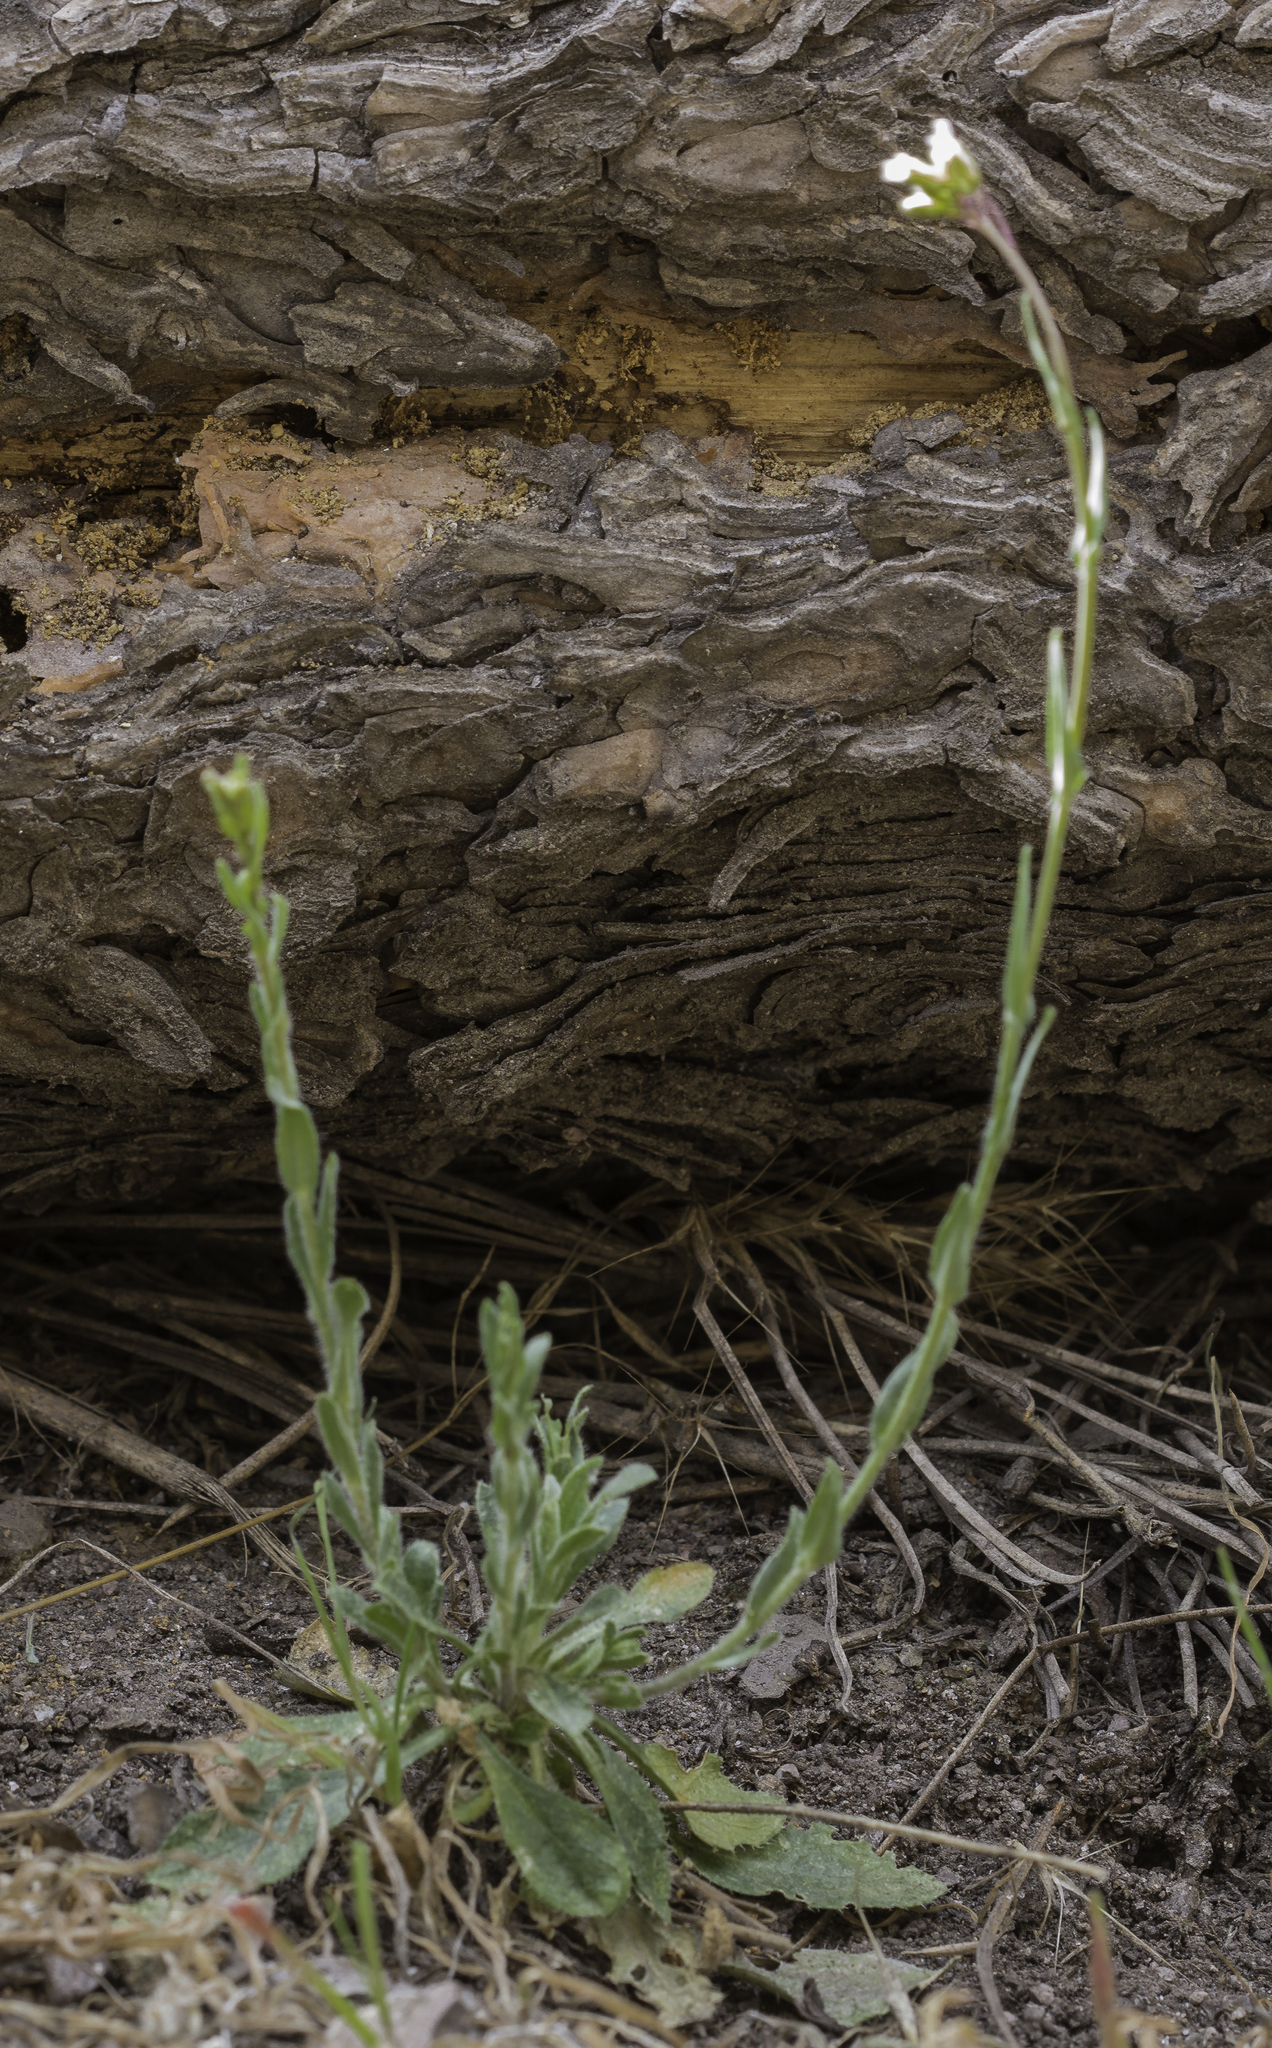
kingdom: Plantae
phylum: Tracheophyta
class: Magnoliopsida
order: Brassicales
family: Brassicaceae
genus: Boechera
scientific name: Boechera fendleri
